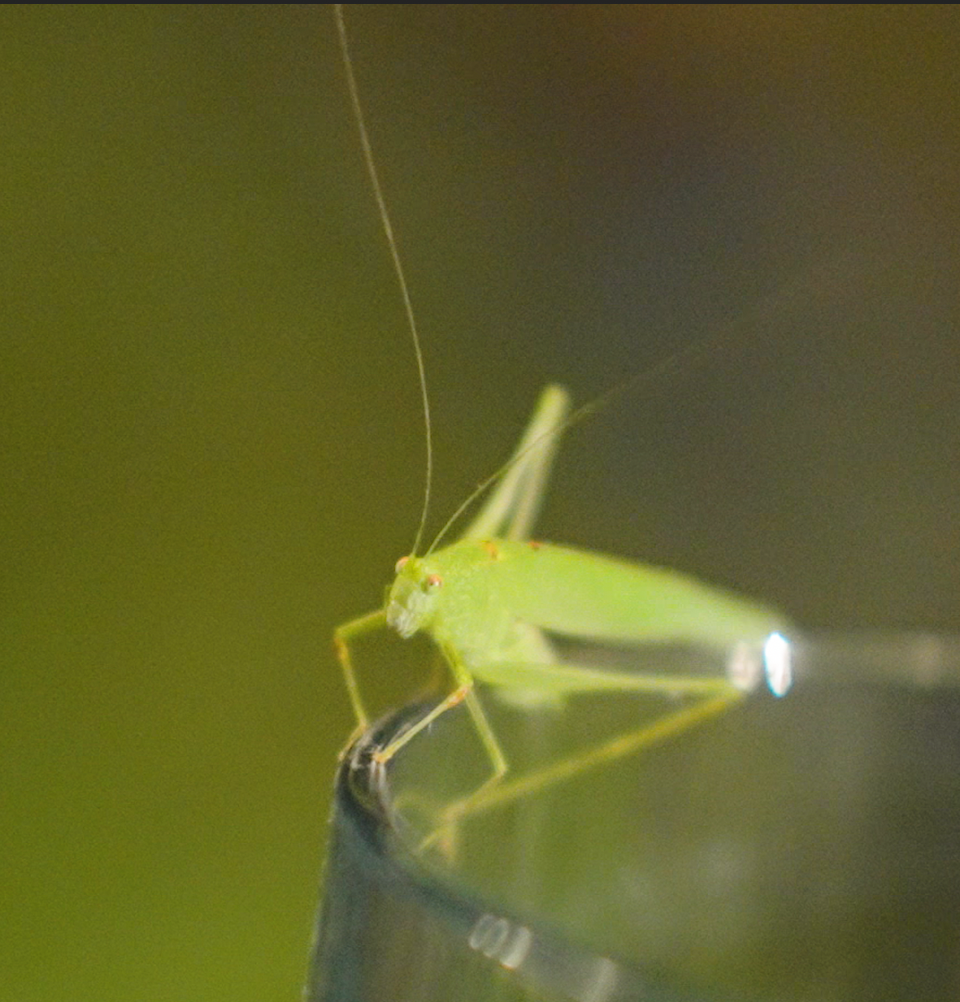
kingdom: Animalia
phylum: Arthropoda
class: Insecta
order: Orthoptera
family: Tettigoniidae
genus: Phaneroptera
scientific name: Phaneroptera nana
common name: Southern sickle bush-cricket
